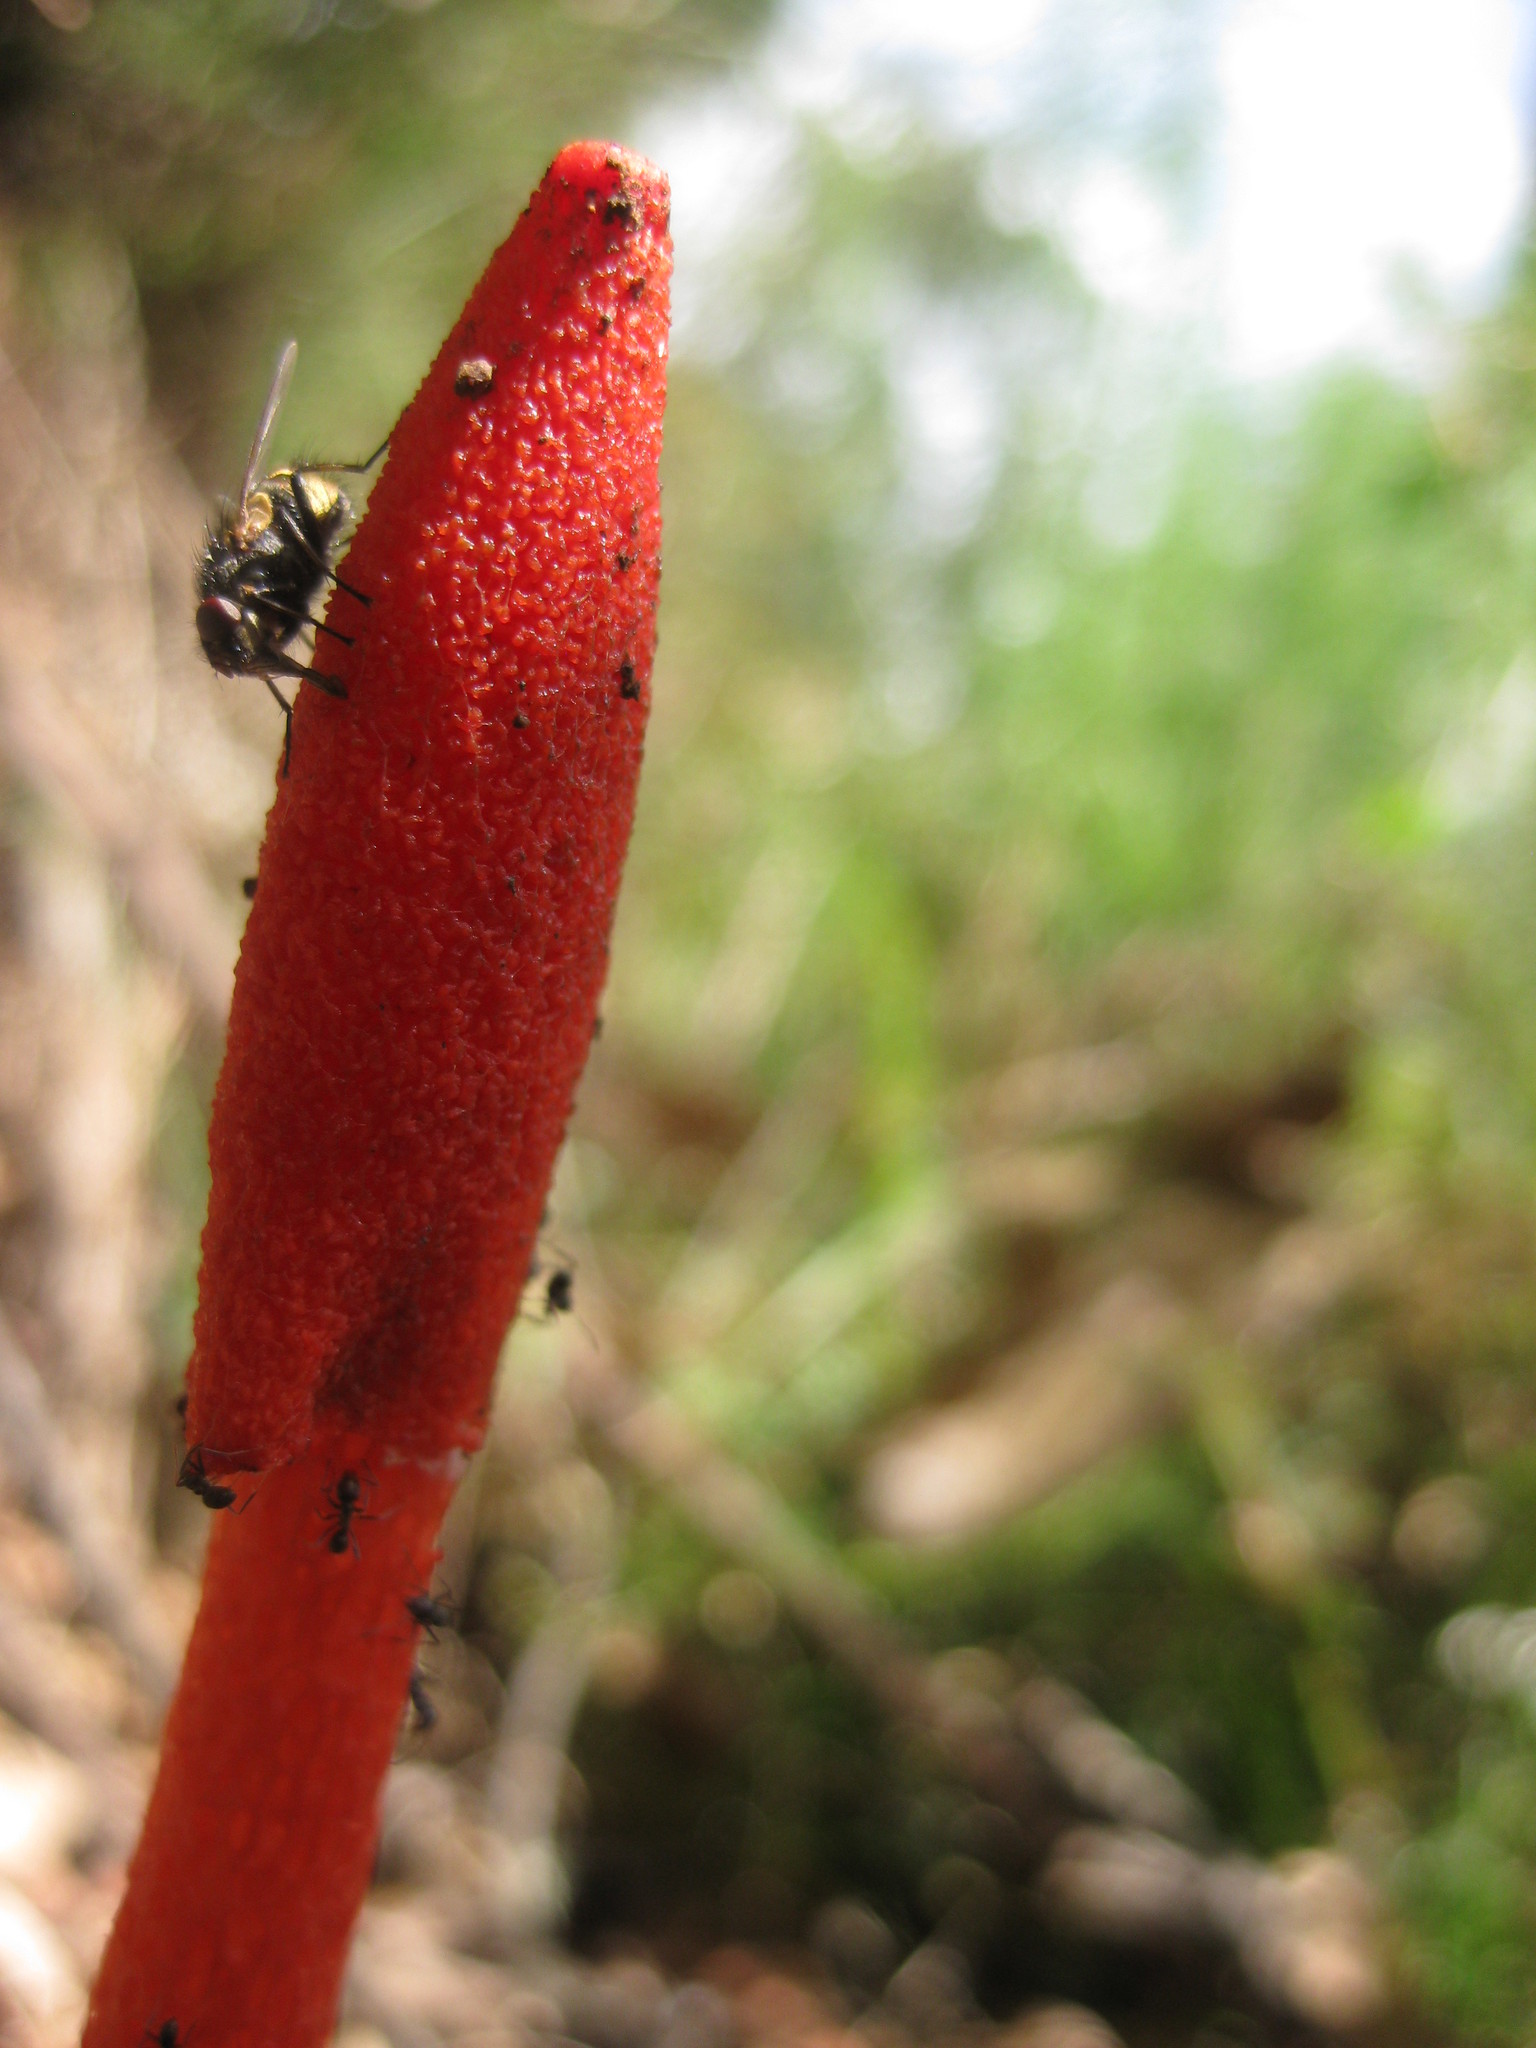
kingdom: Fungi
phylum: Basidiomycota
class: Agaricomycetes
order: Phallales
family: Phallaceae
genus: Phallus
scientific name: Phallus rubicundus
